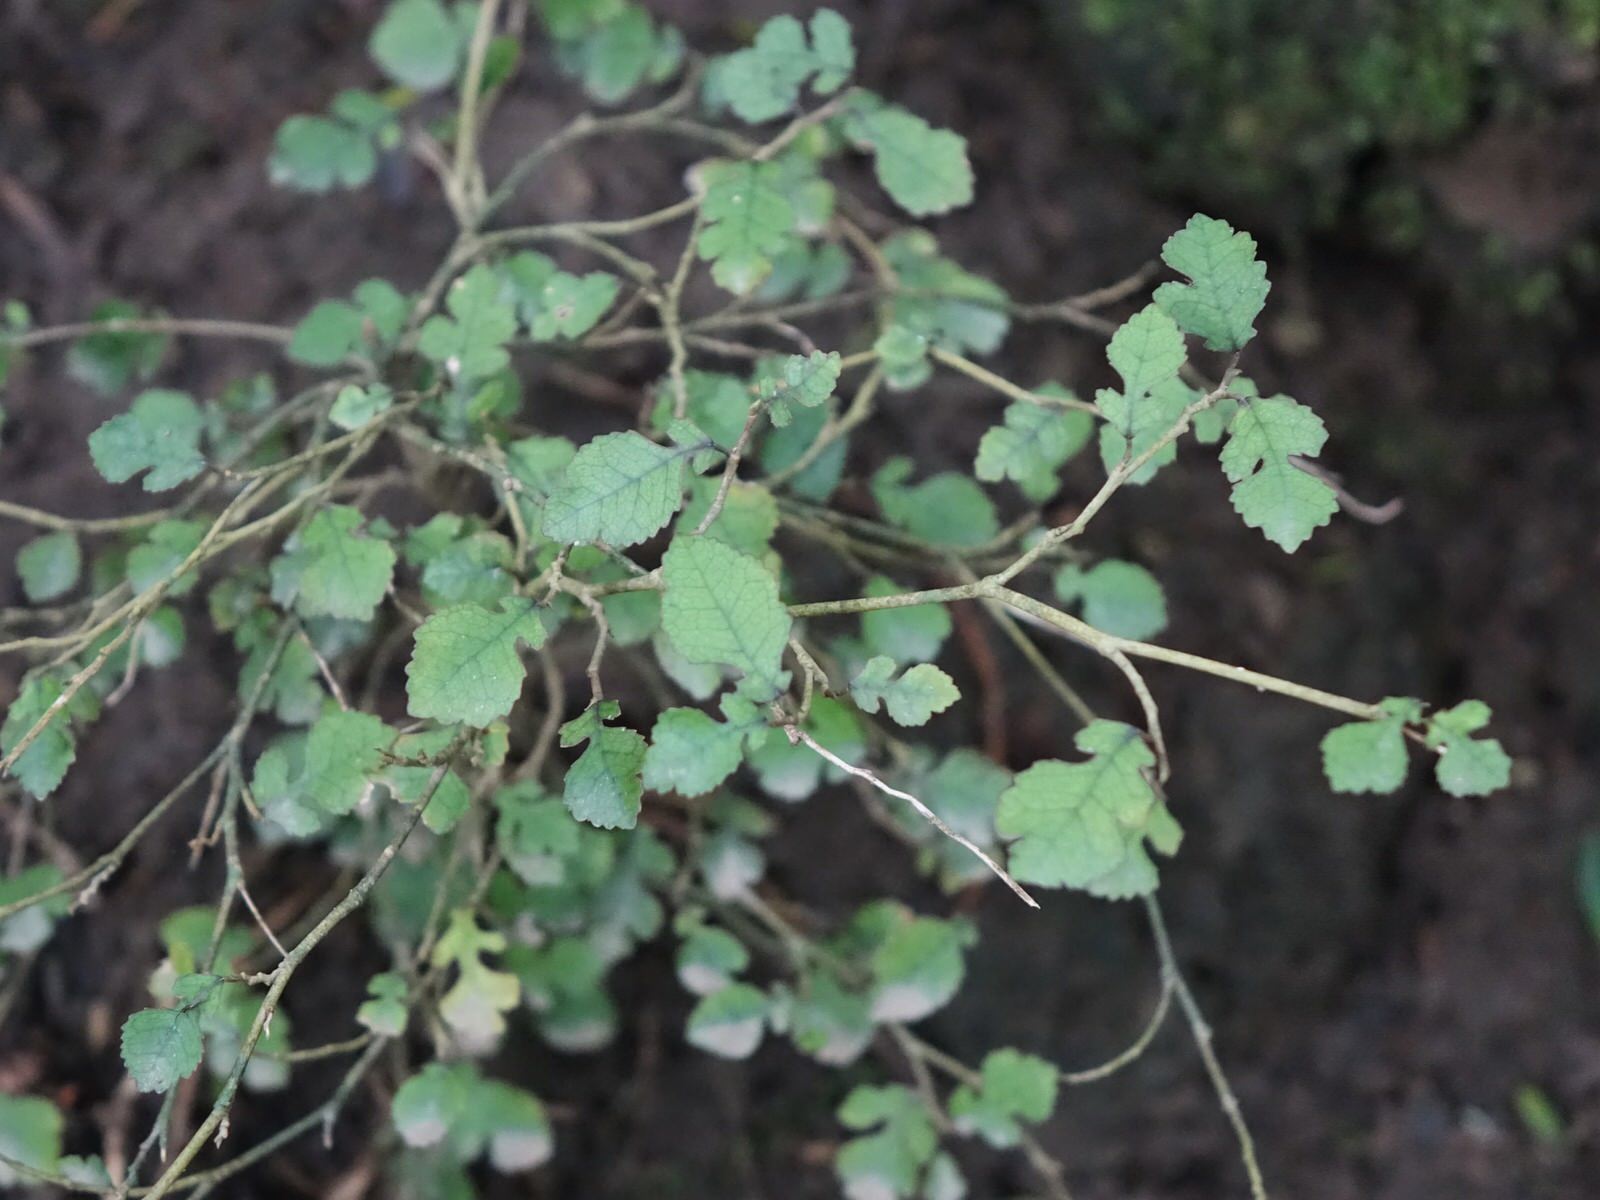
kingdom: Plantae
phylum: Tracheophyta
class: Magnoliopsida
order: Rosales
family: Moraceae
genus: Paratrophis
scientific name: Paratrophis microphylla
